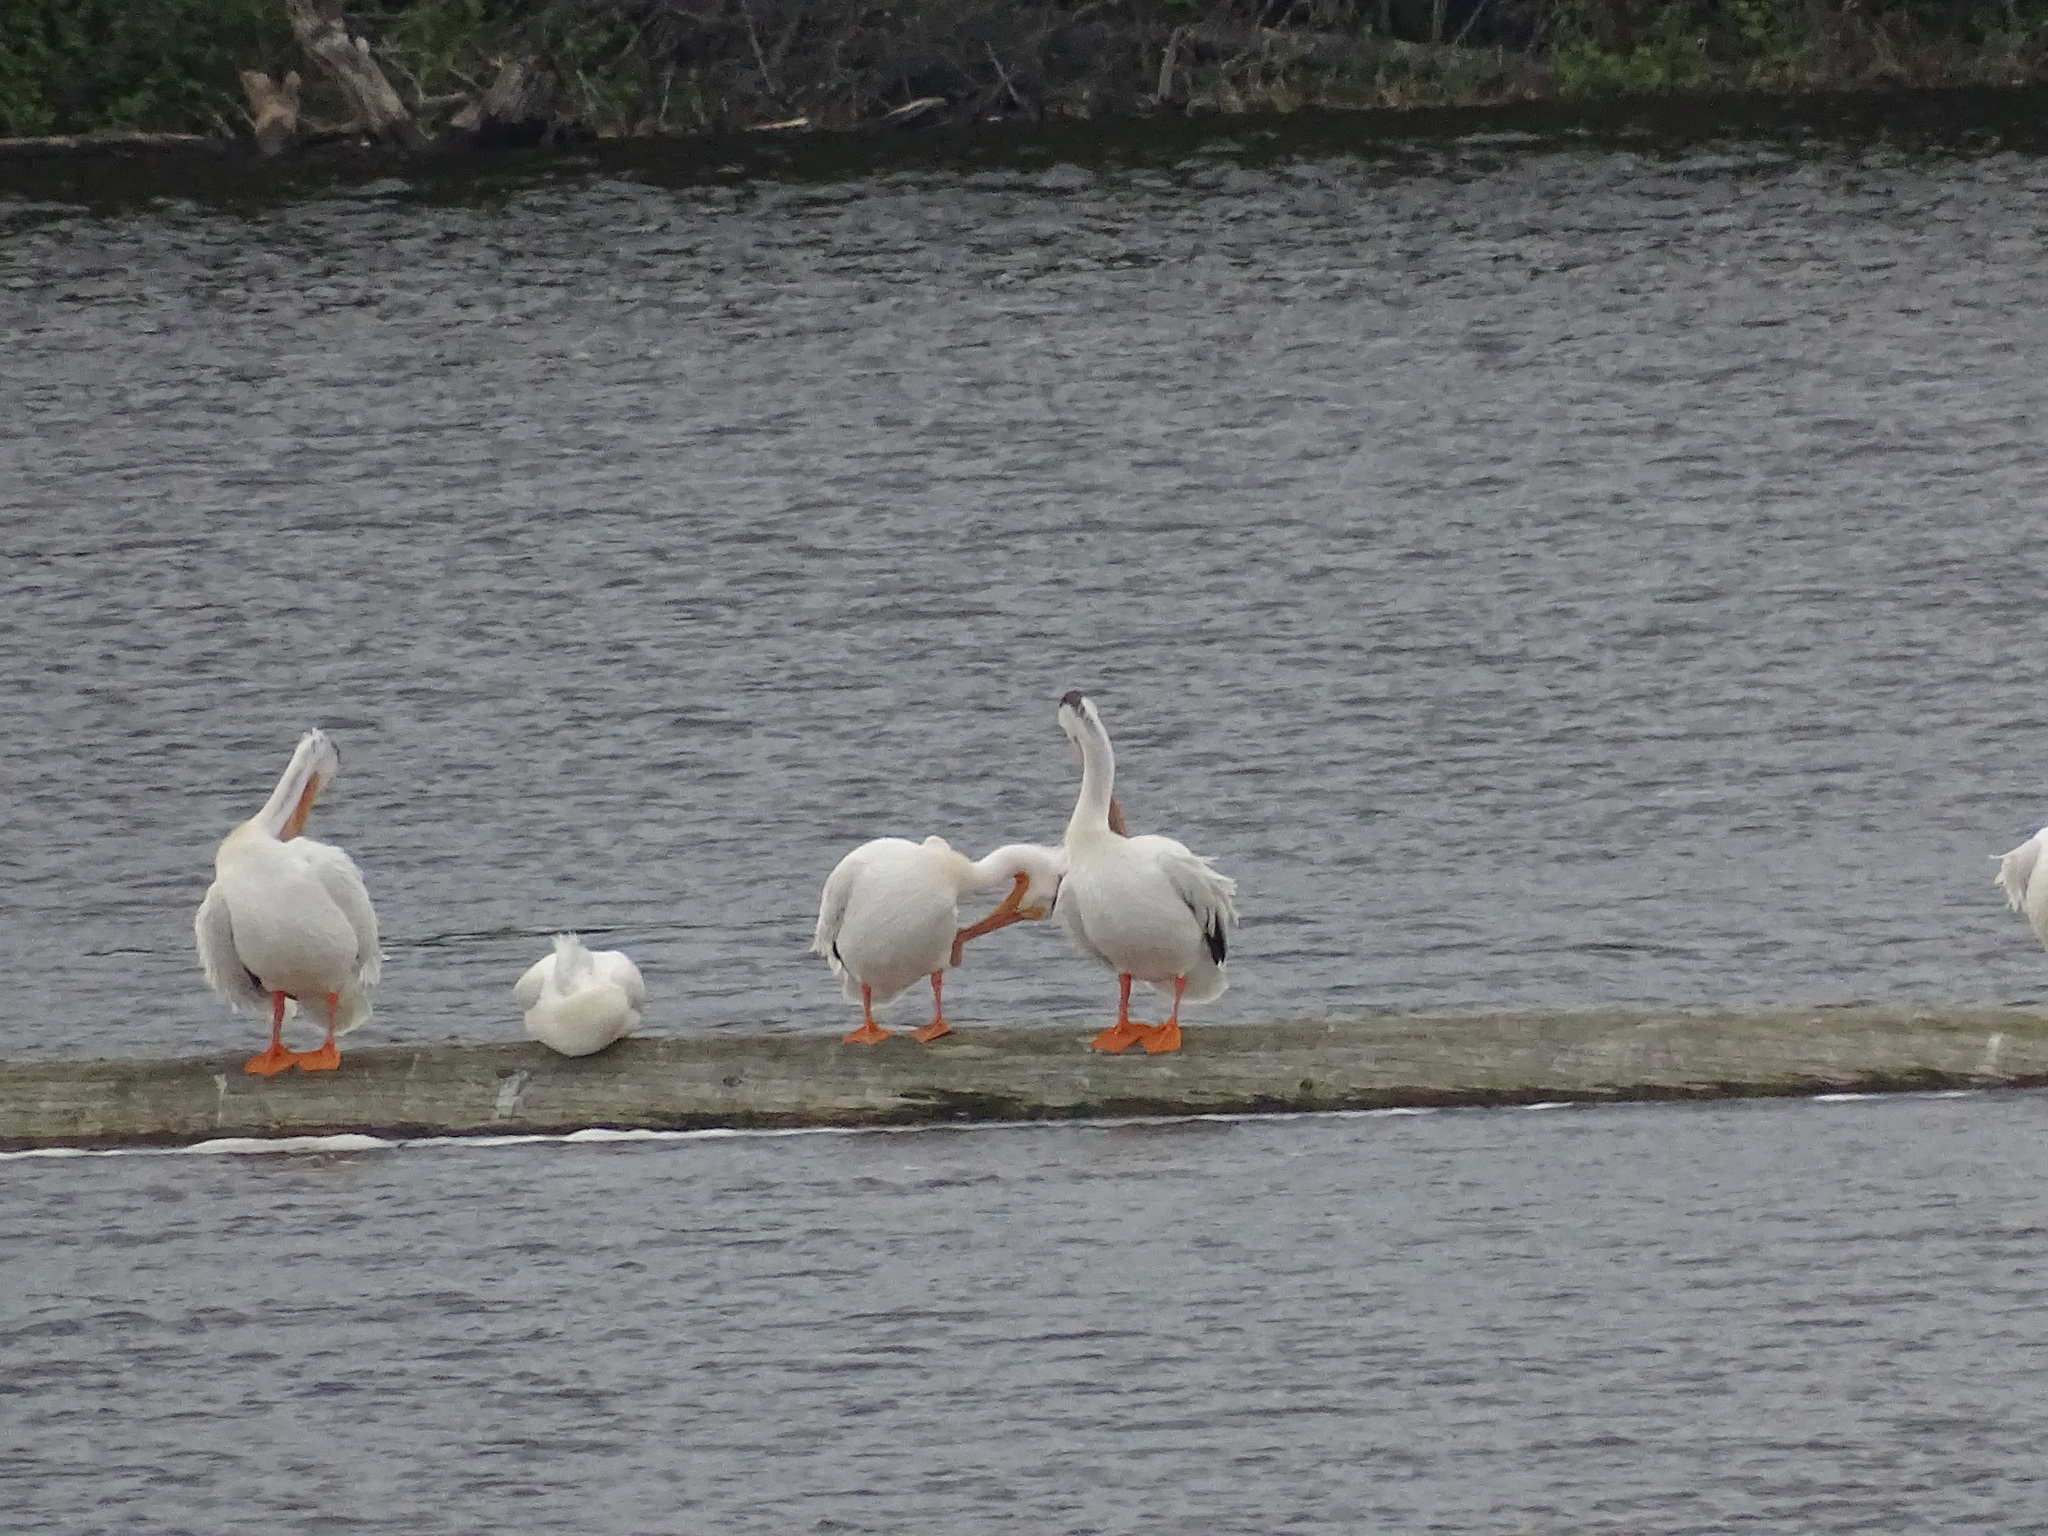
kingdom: Animalia
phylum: Chordata
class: Aves
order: Pelecaniformes
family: Pelecanidae
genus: Pelecanus
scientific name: Pelecanus erythrorhynchos
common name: American white pelican
